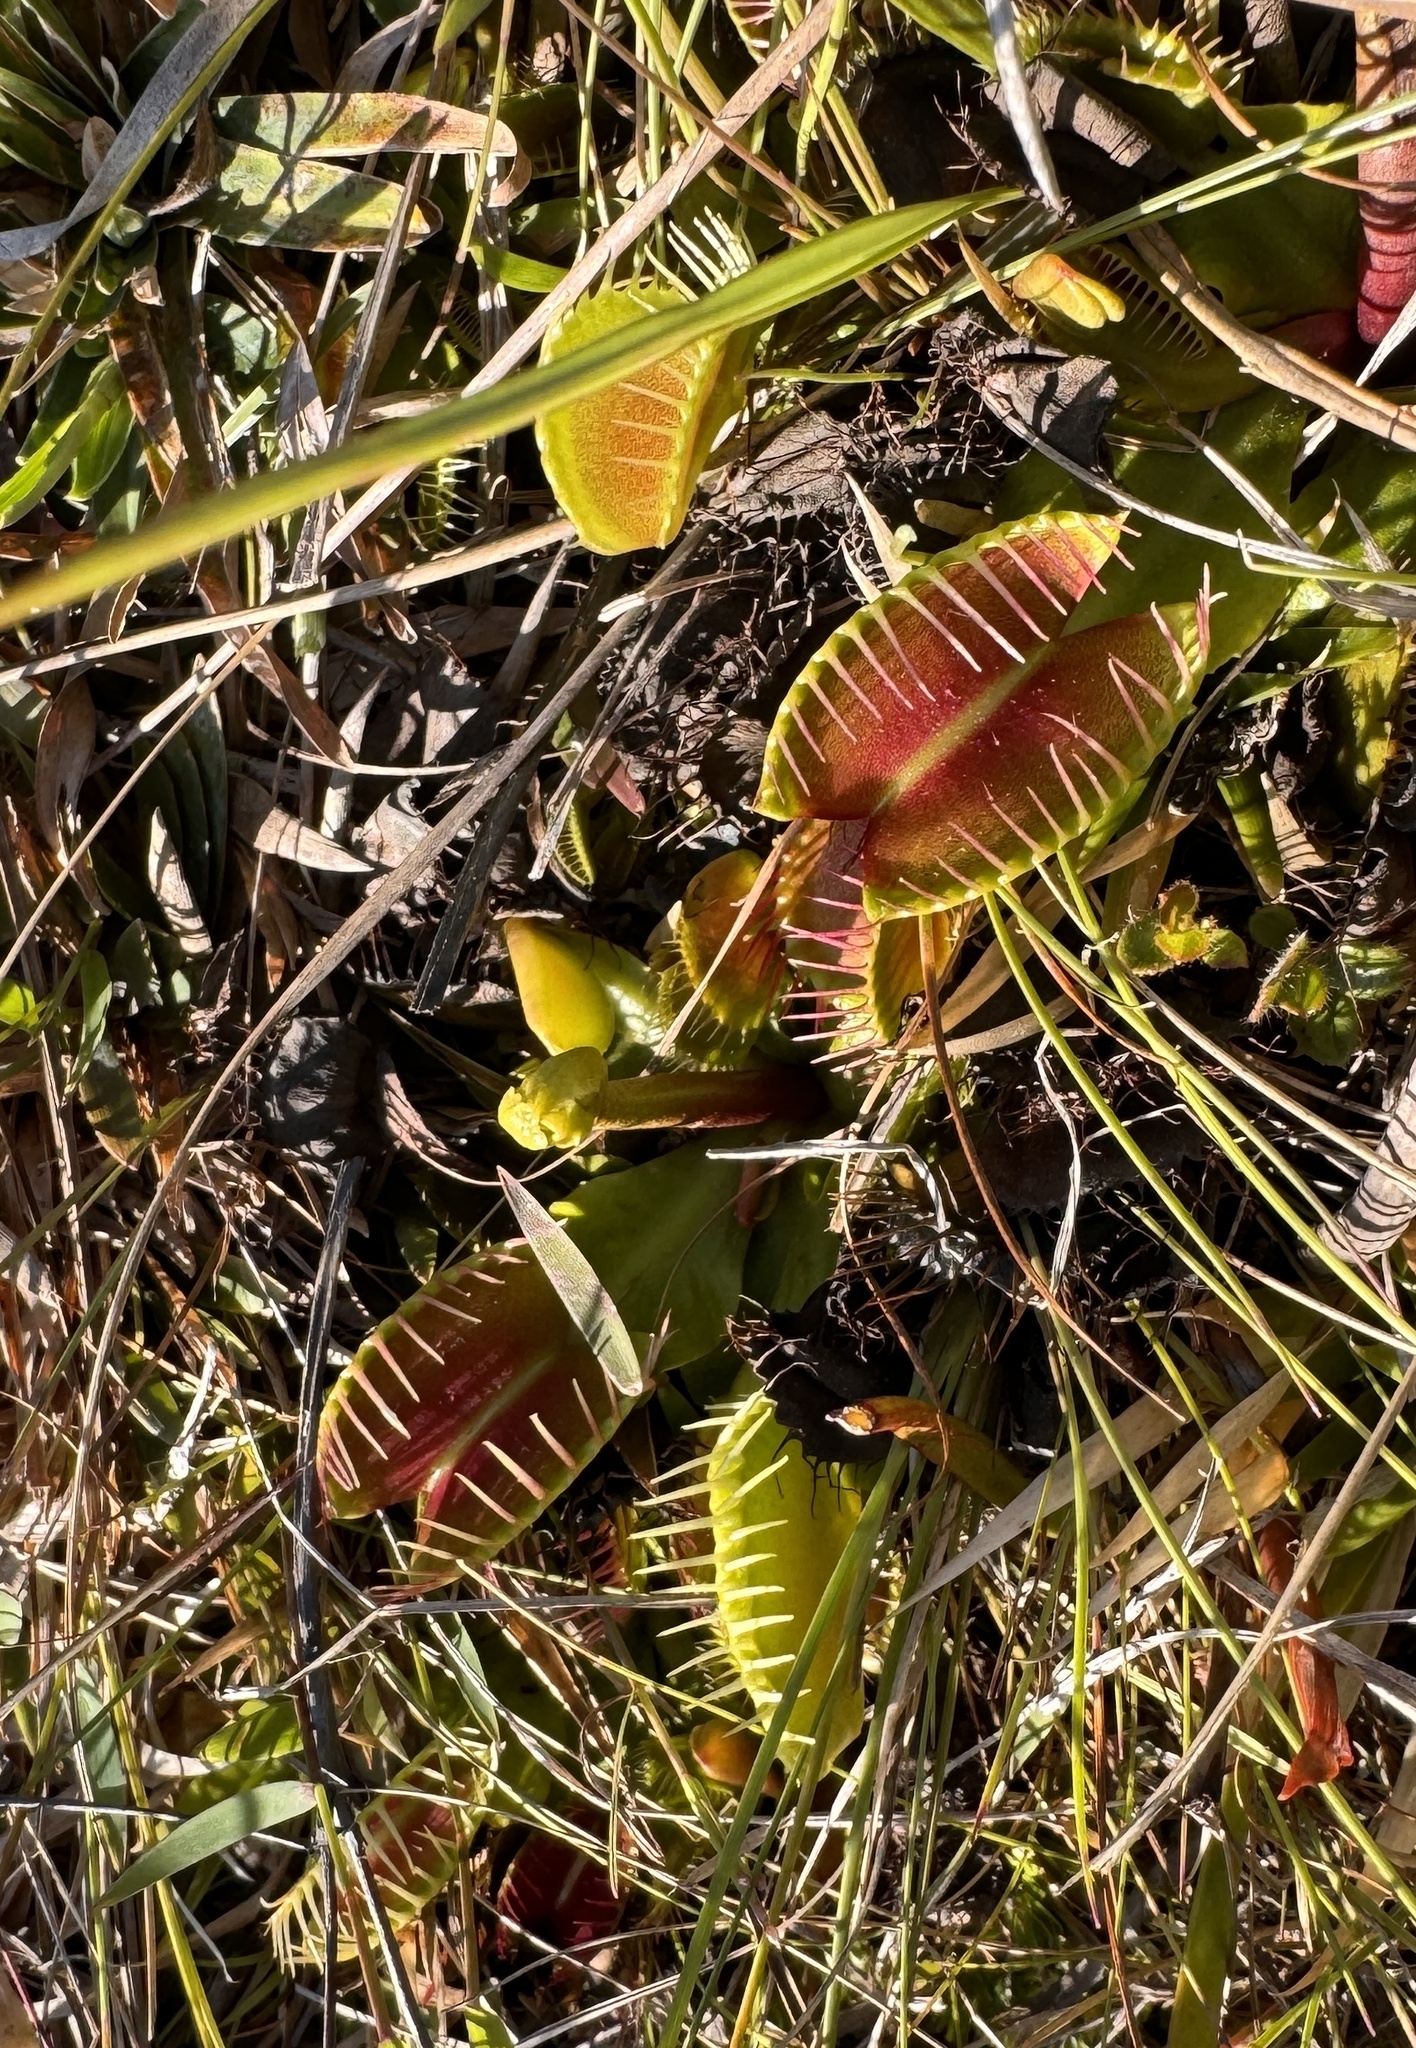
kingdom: Plantae
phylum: Tracheophyta
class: Magnoliopsida
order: Caryophyllales
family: Droseraceae
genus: Dionaea
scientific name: Dionaea muscipula
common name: Venus flytrap
